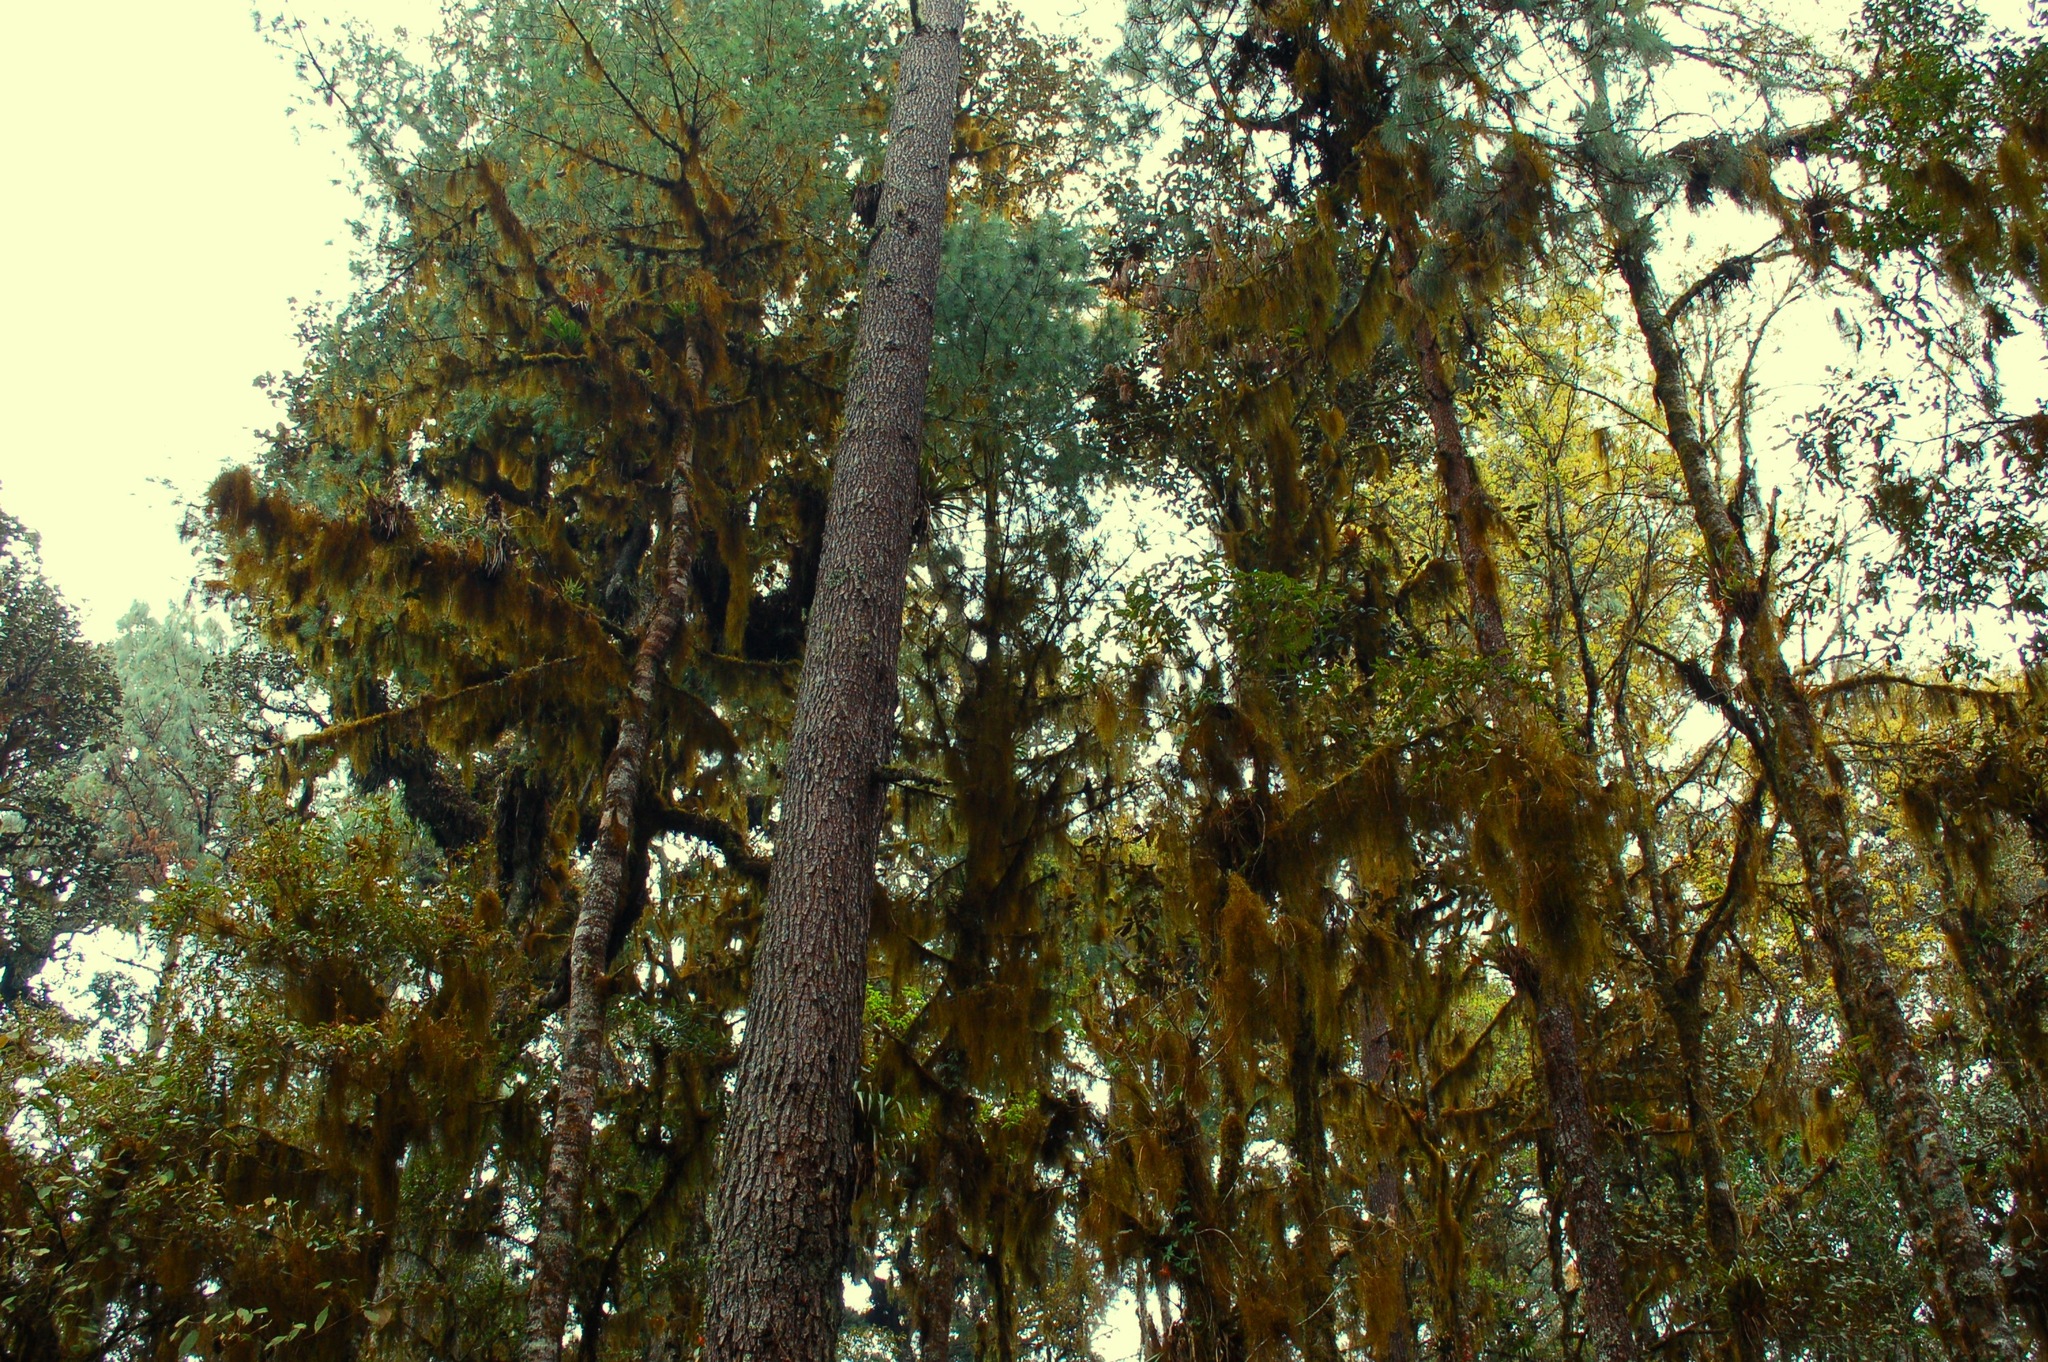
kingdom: Plantae
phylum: Tracheophyta
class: Magnoliopsida
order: Fagales
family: Fagaceae
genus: Quercus
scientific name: Quercus laurina
